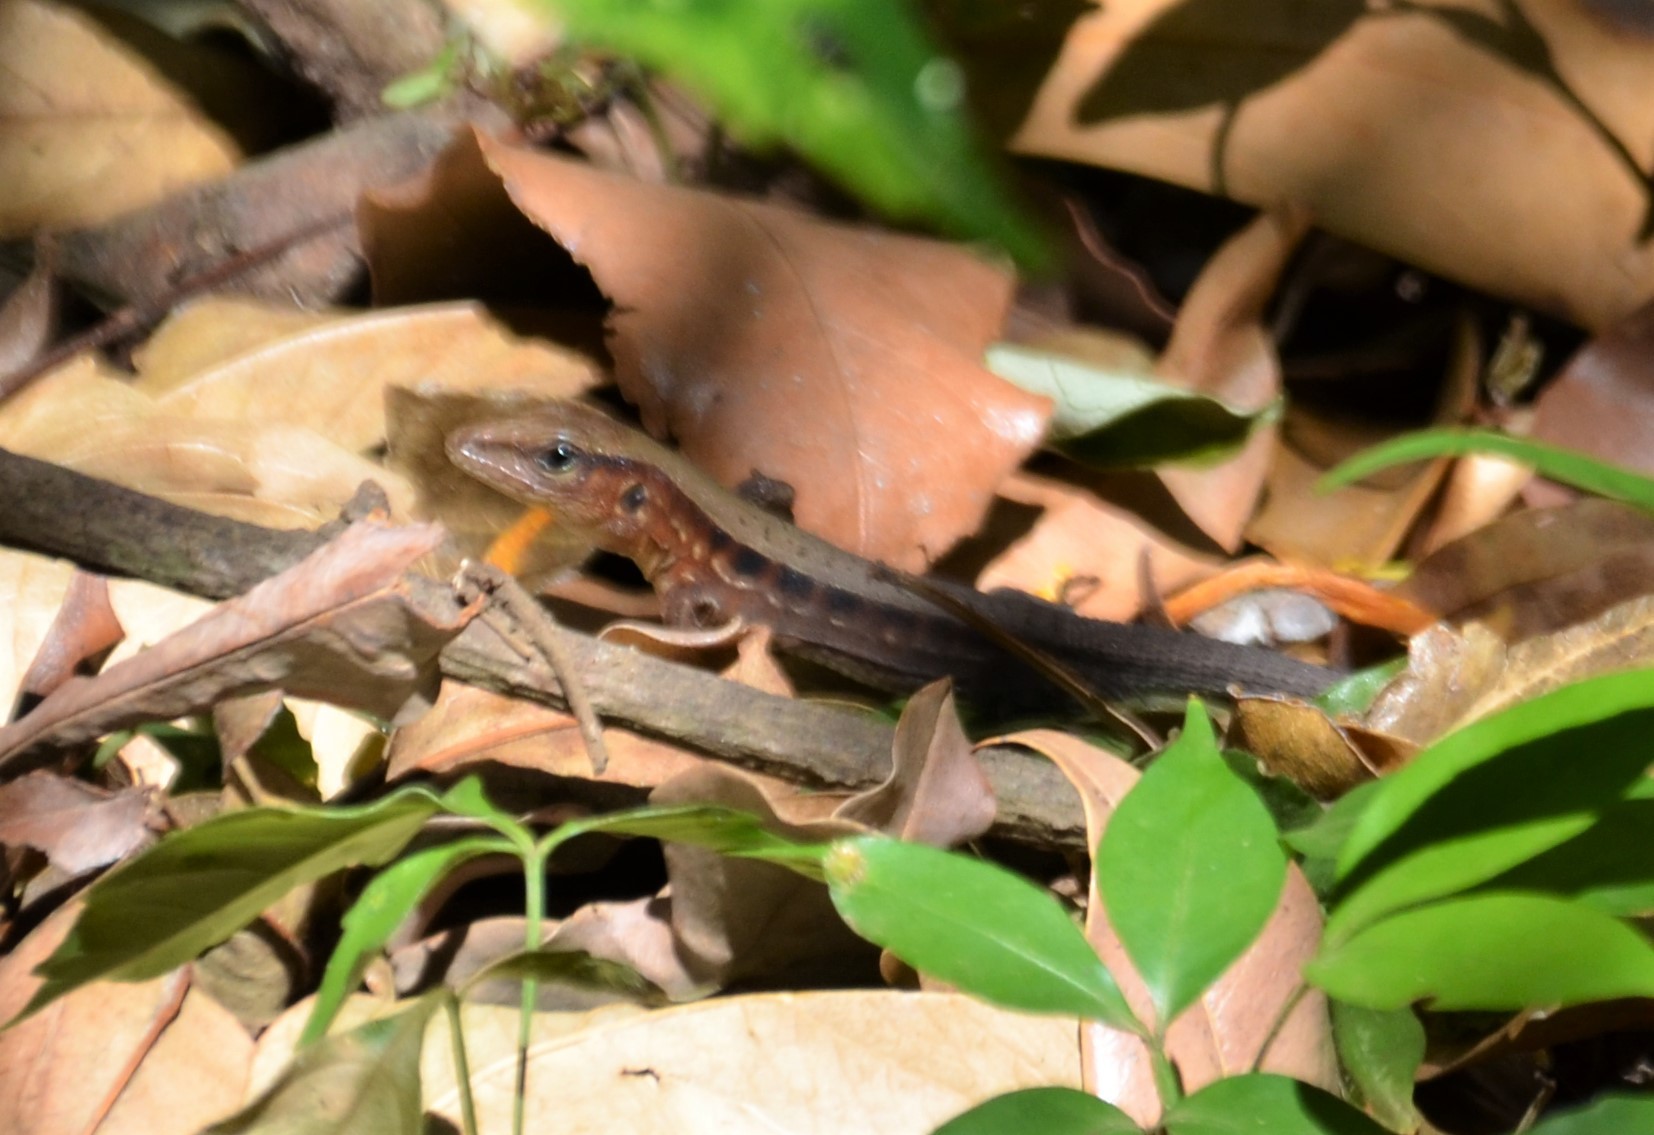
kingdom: Animalia
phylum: Chordata
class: Squamata
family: Teiidae
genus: Holcosus
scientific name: Holcosus undulatus
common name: Rainbow ameiva
